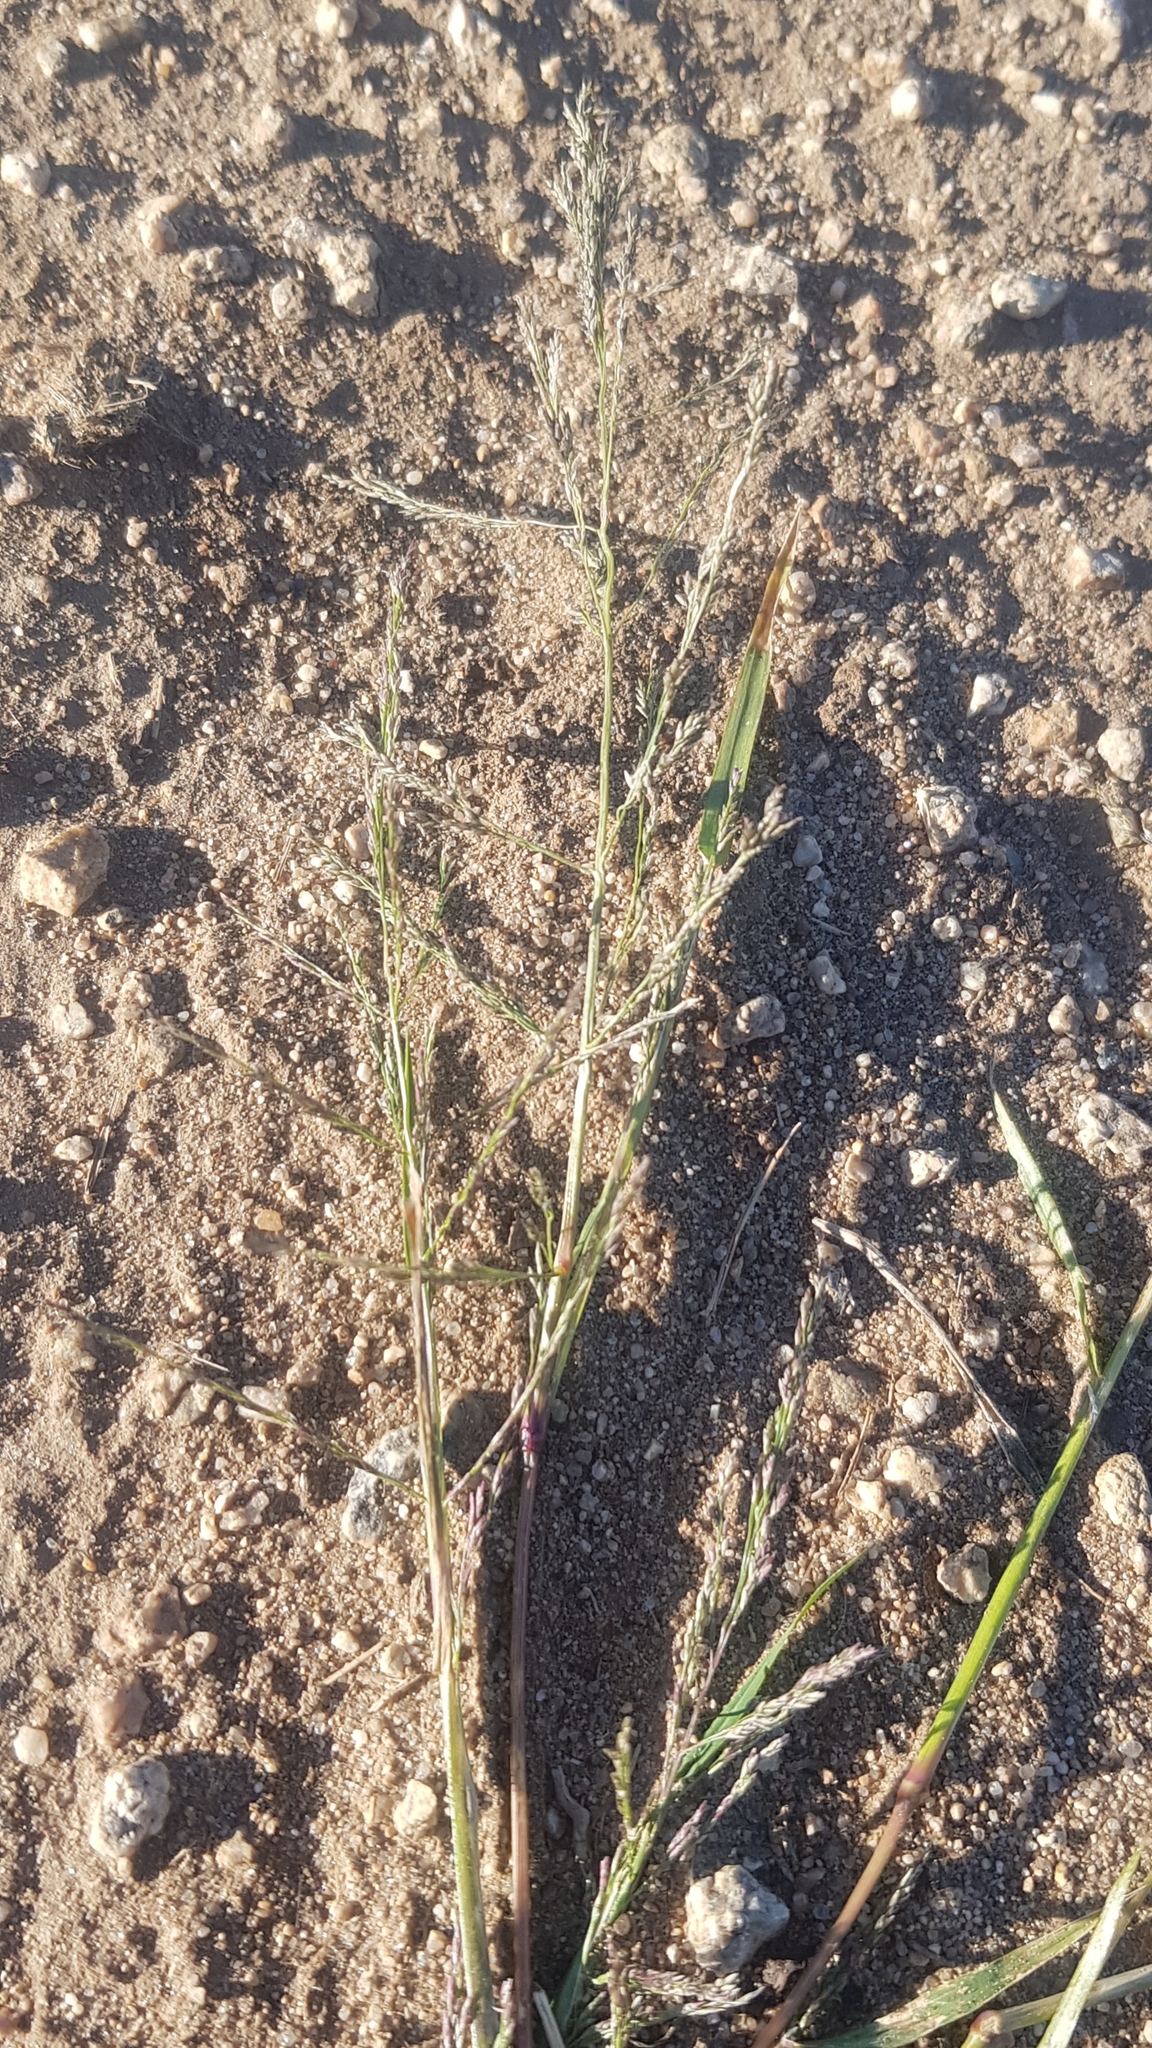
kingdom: Plantae
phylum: Tracheophyta
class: Liliopsida
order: Poales
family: Poaceae
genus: Eragrostis
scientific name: Eragrostis minor
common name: Small love-grass
